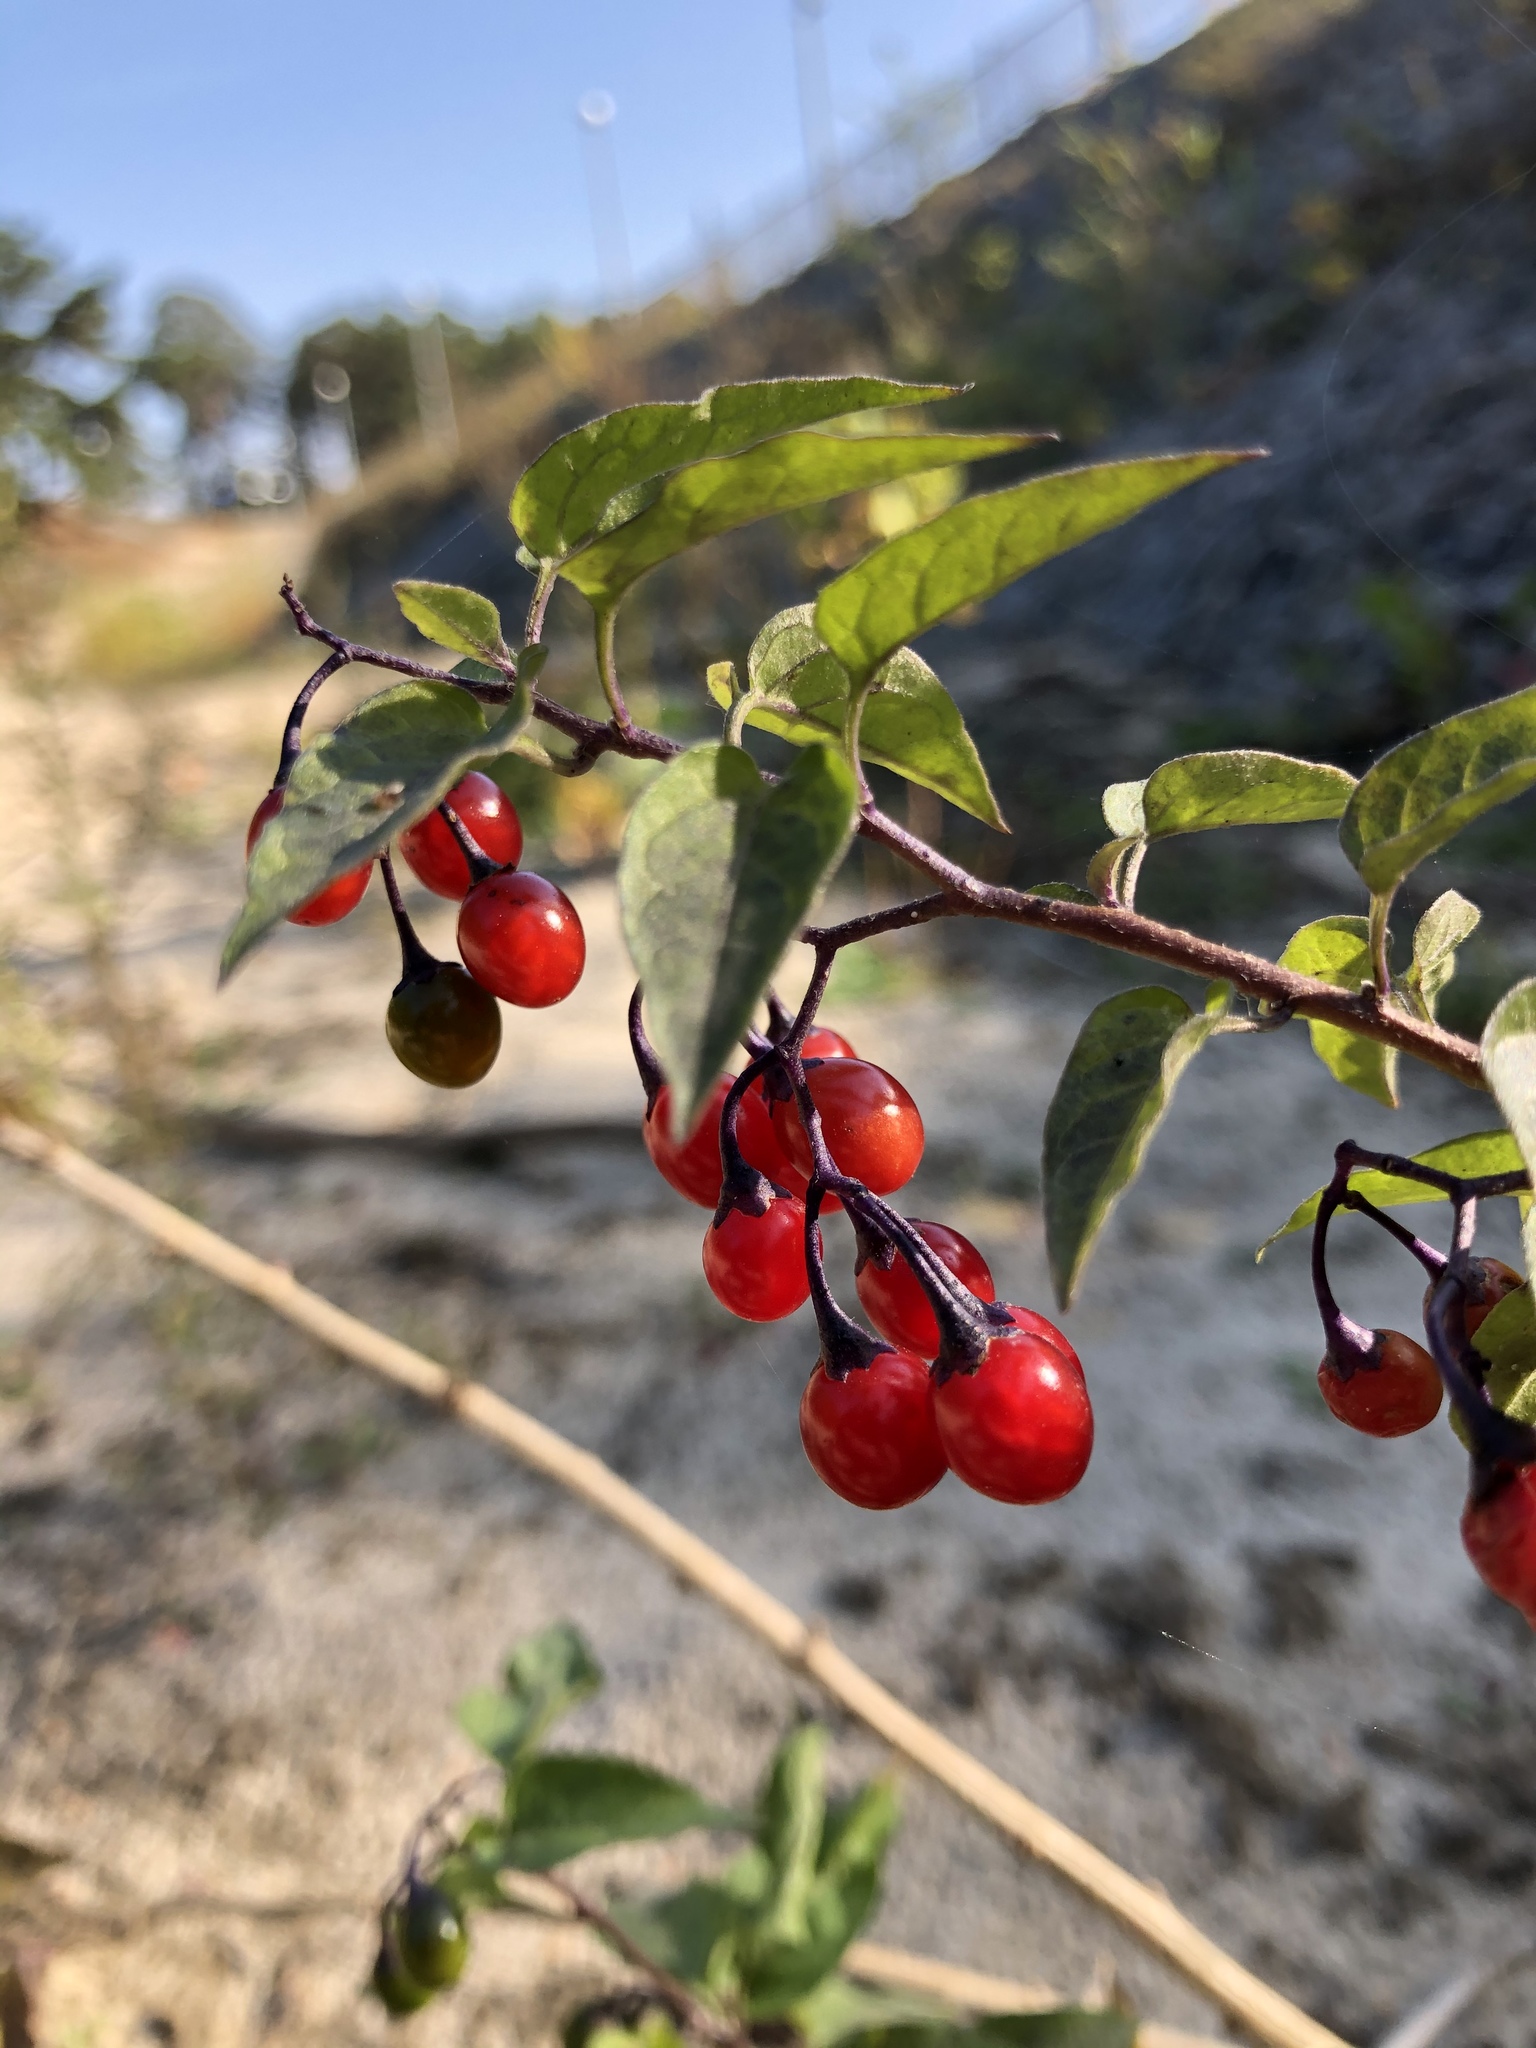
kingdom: Plantae
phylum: Tracheophyta
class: Magnoliopsida
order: Solanales
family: Solanaceae
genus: Solanum
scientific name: Solanum dulcamara
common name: Climbing nightshade
